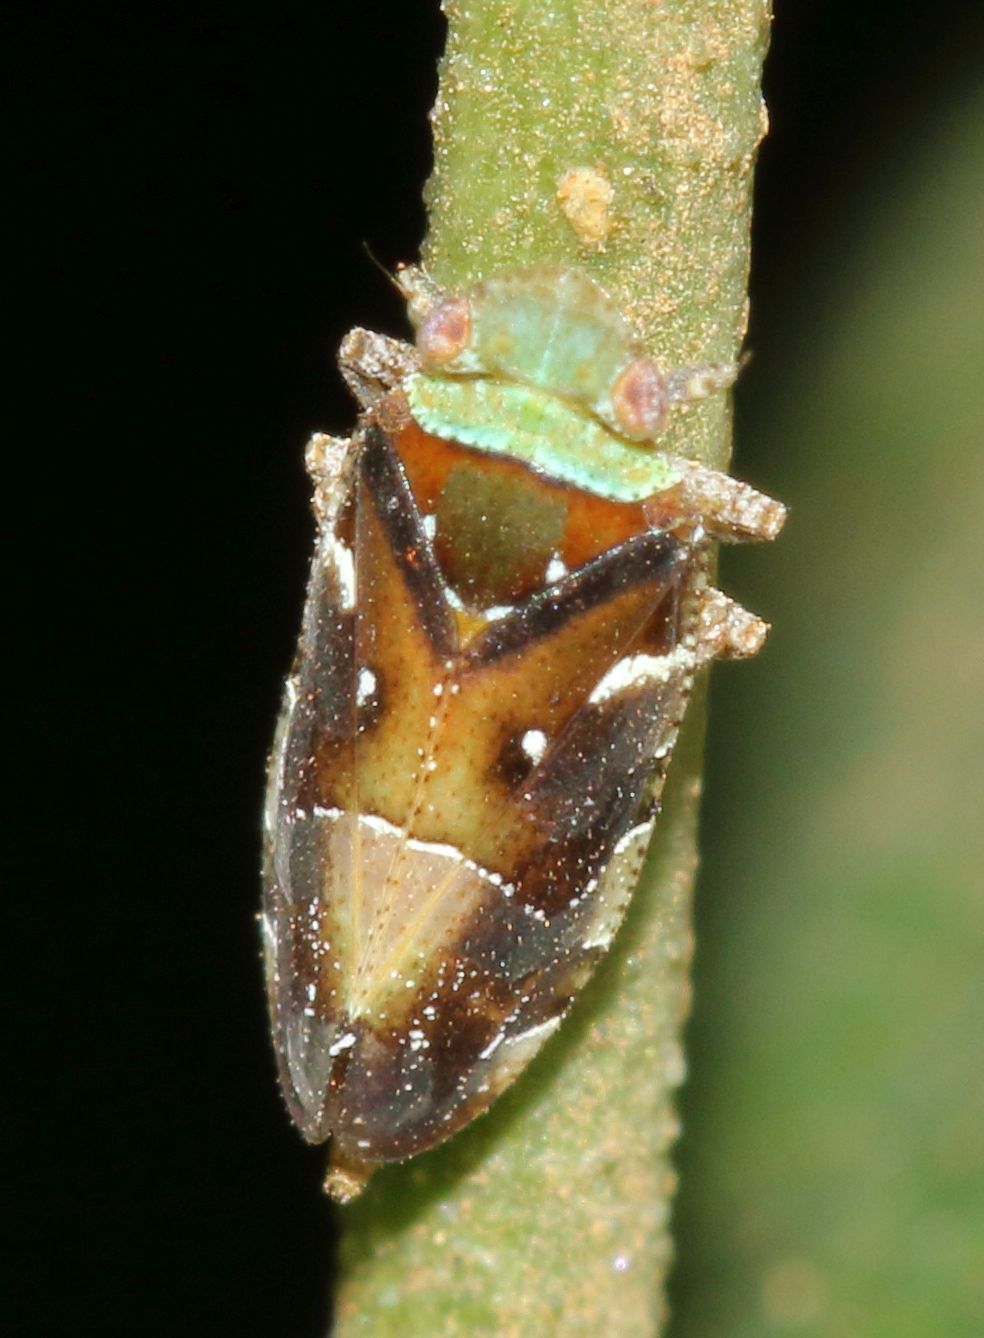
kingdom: Animalia
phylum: Arthropoda
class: Insecta
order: Hemiptera
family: Tettigometridae
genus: Nototettigometra
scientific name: Nototettigometra patruelis
